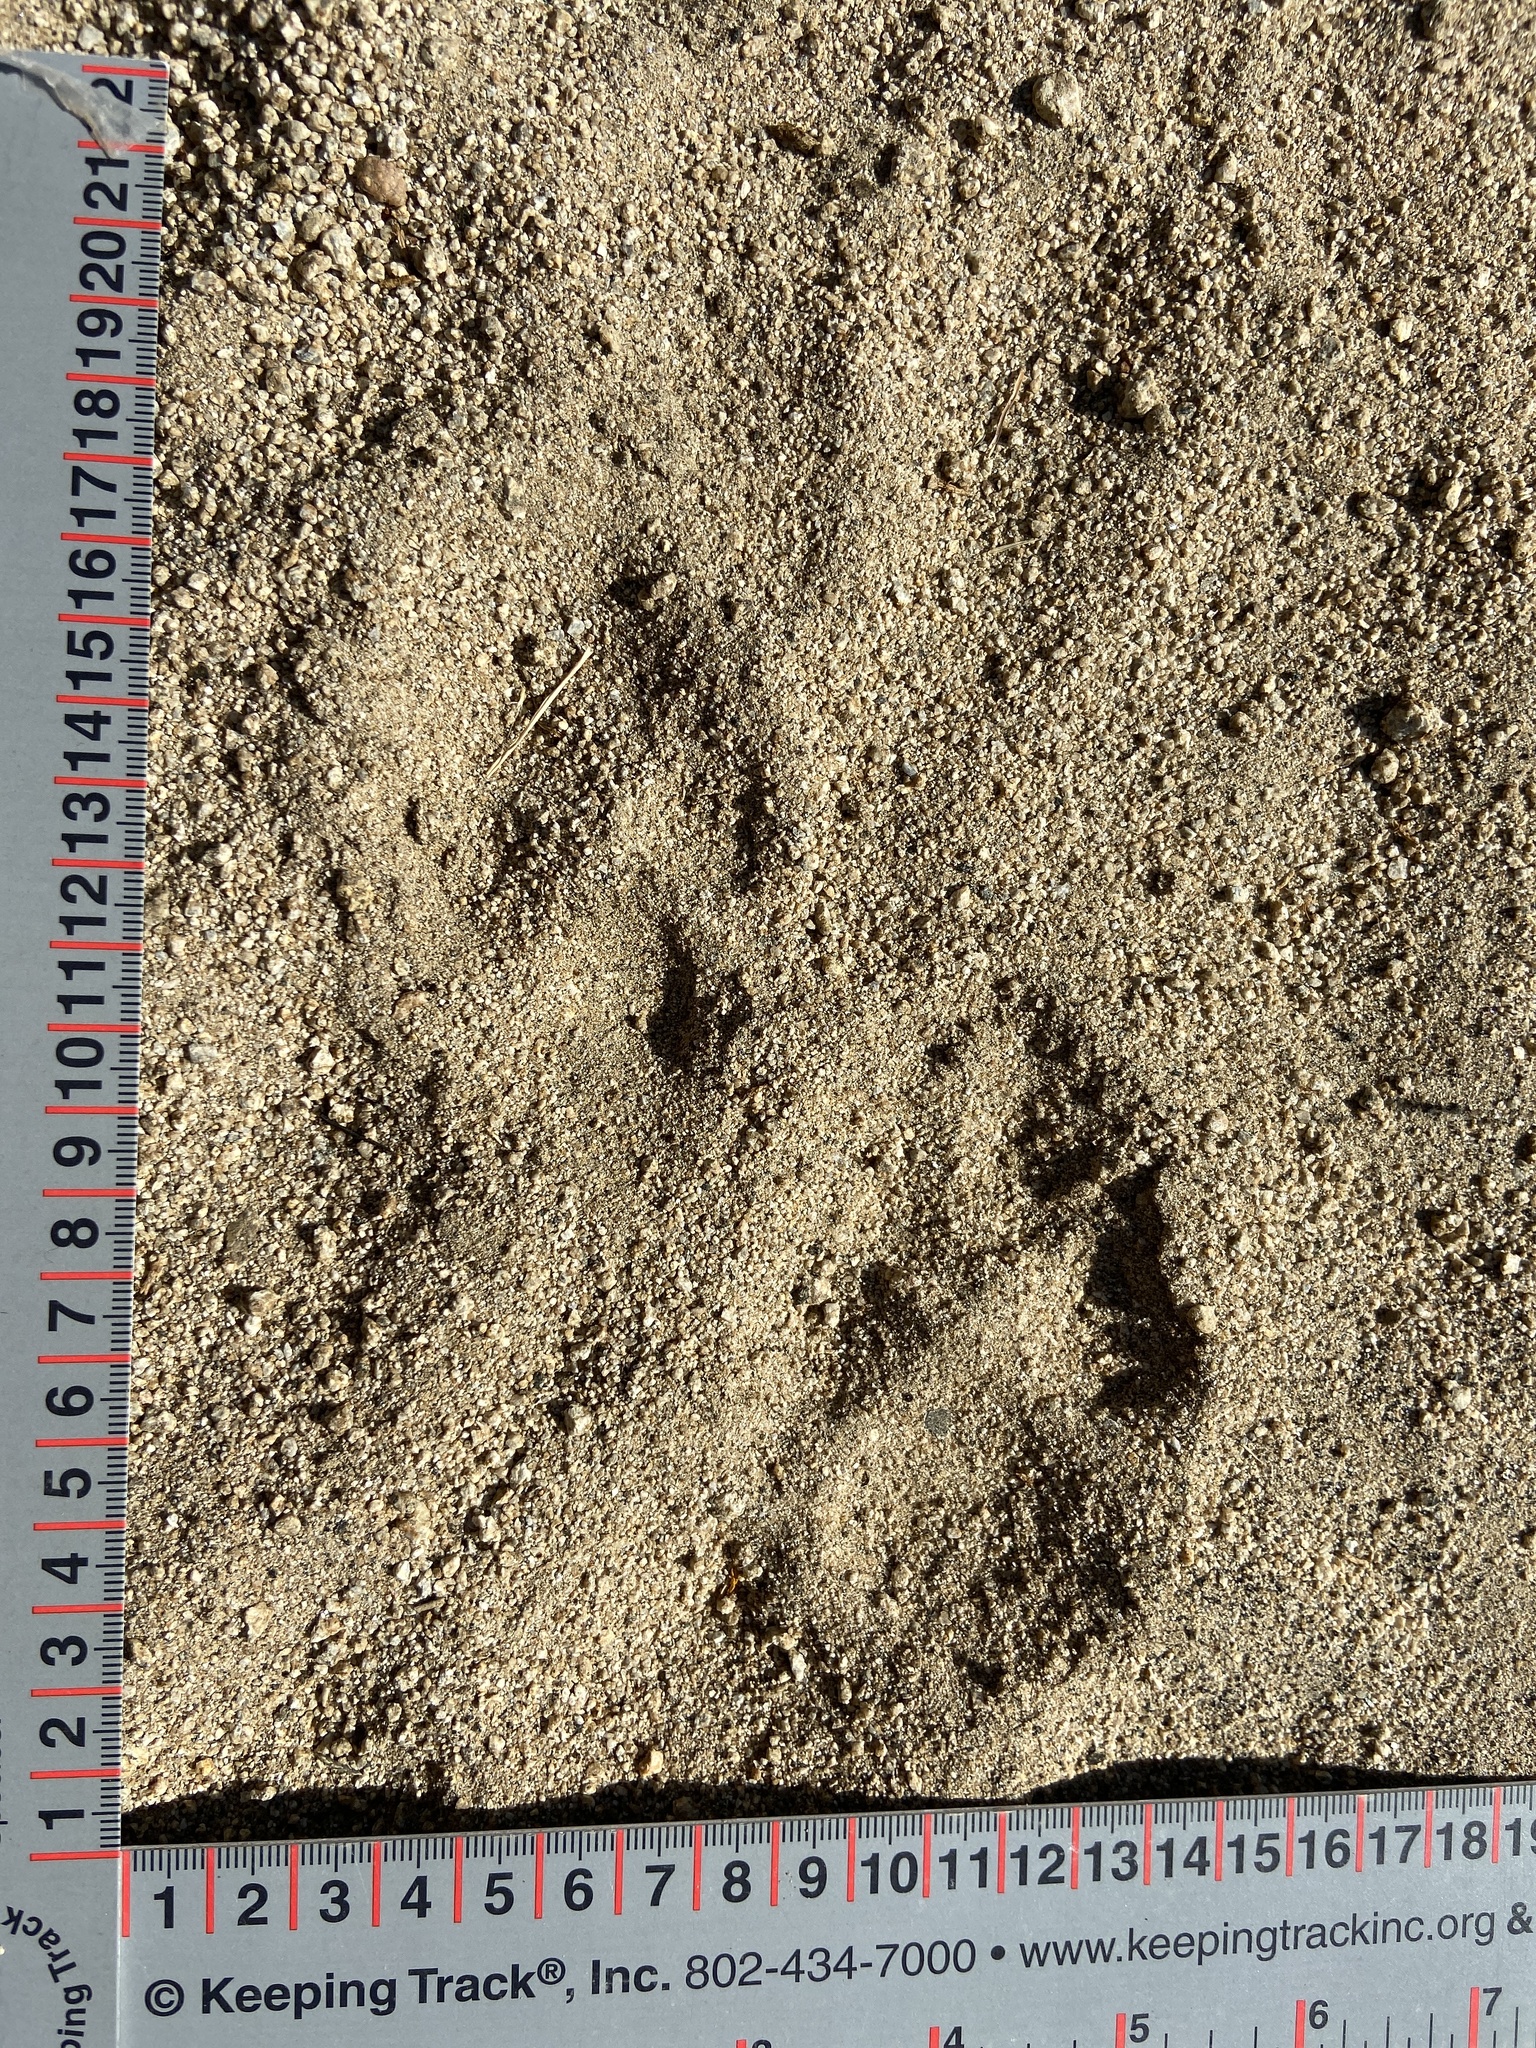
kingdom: Animalia
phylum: Chordata
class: Mammalia
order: Carnivora
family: Canidae
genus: Canis
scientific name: Canis latrans
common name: Coyote
